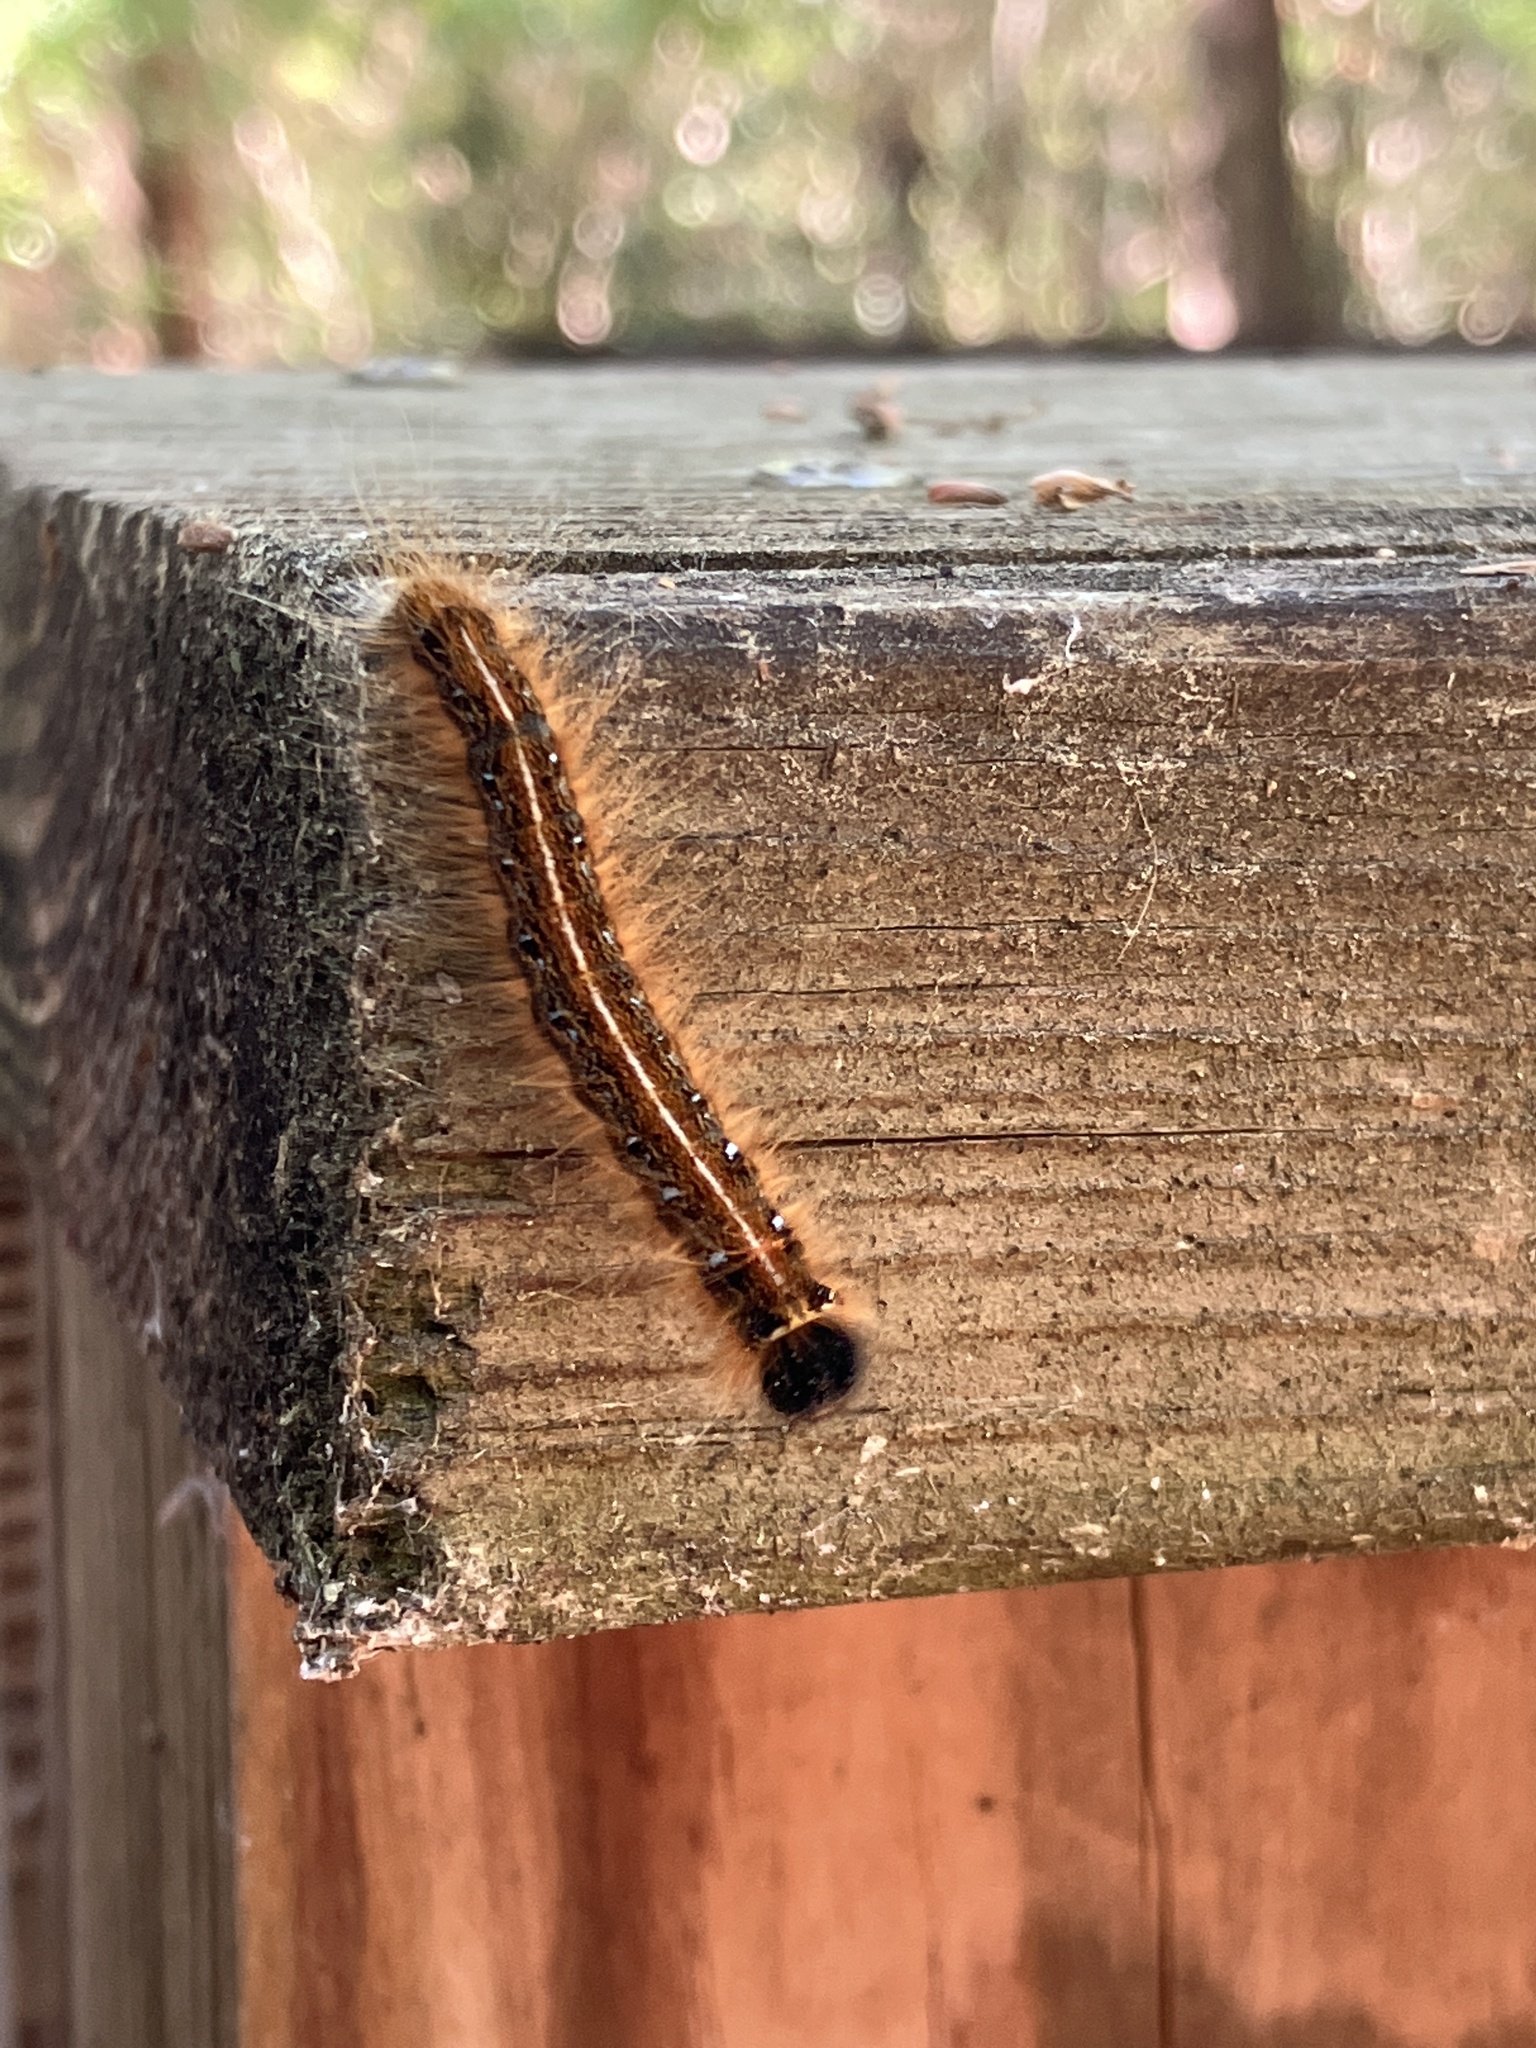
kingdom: Animalia
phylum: Arthropoda
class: Insecta
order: Lepidoptera
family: Lasiocampidae
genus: Malacosoma
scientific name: Malacosoma americana
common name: Eastern tent caterpillar moth
